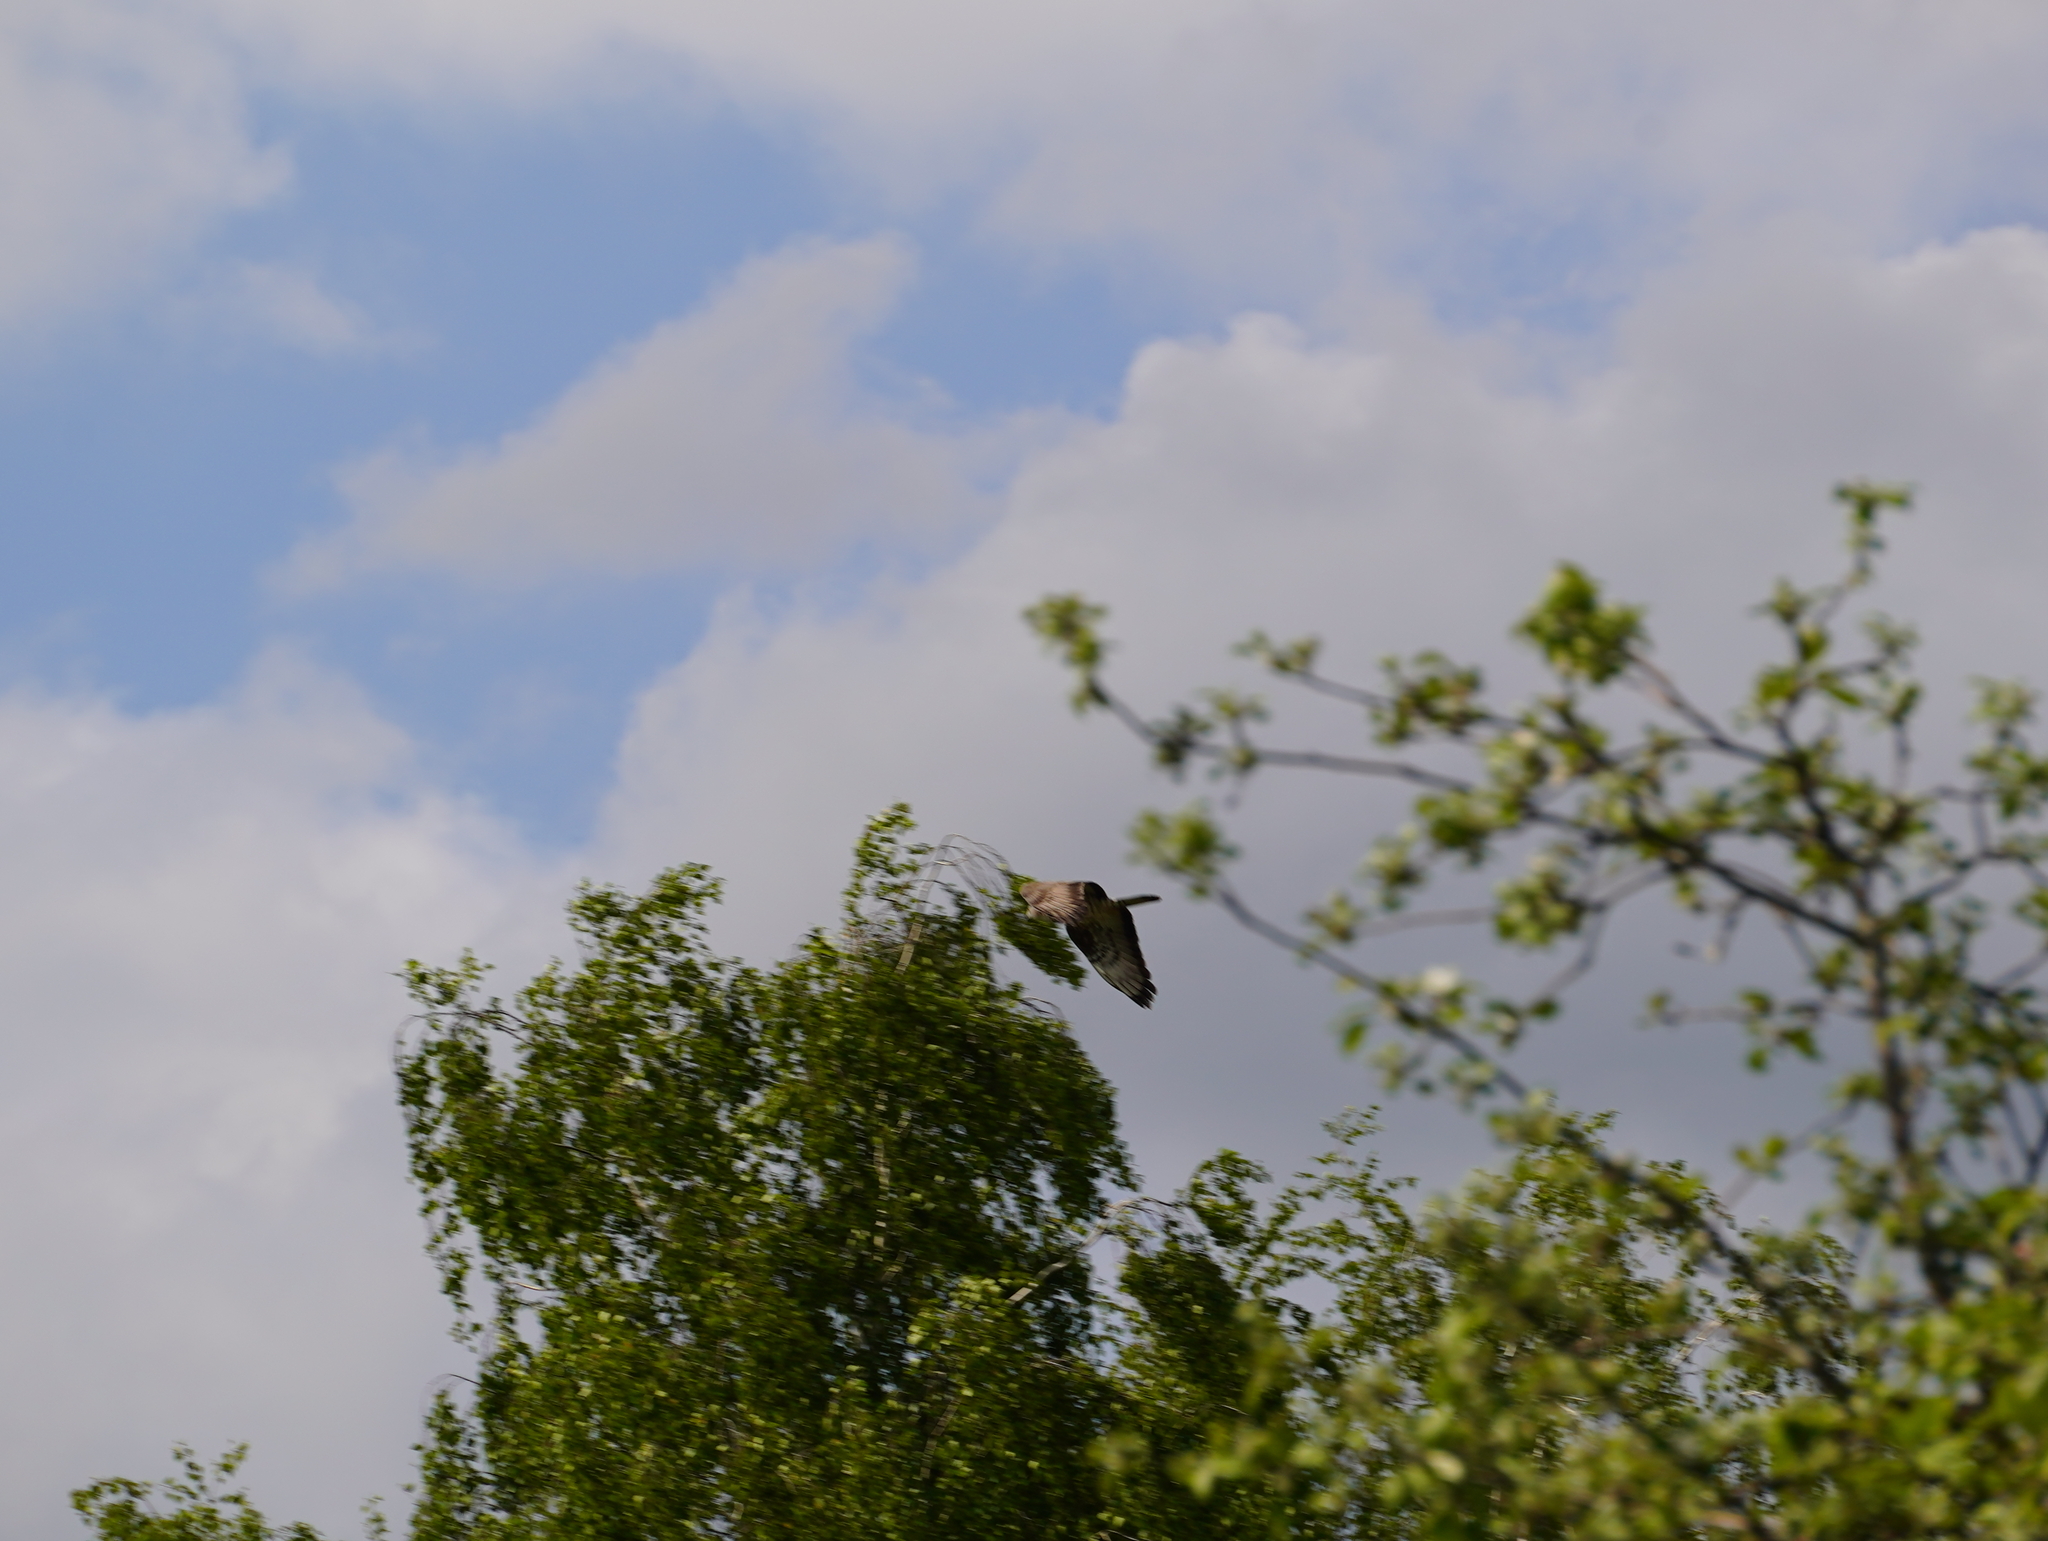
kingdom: Animalia
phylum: Chordata
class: Aves
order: Accipitriformes
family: Accipitridae
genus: Pernis
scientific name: Pernis apivorus
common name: European honey buzzard
